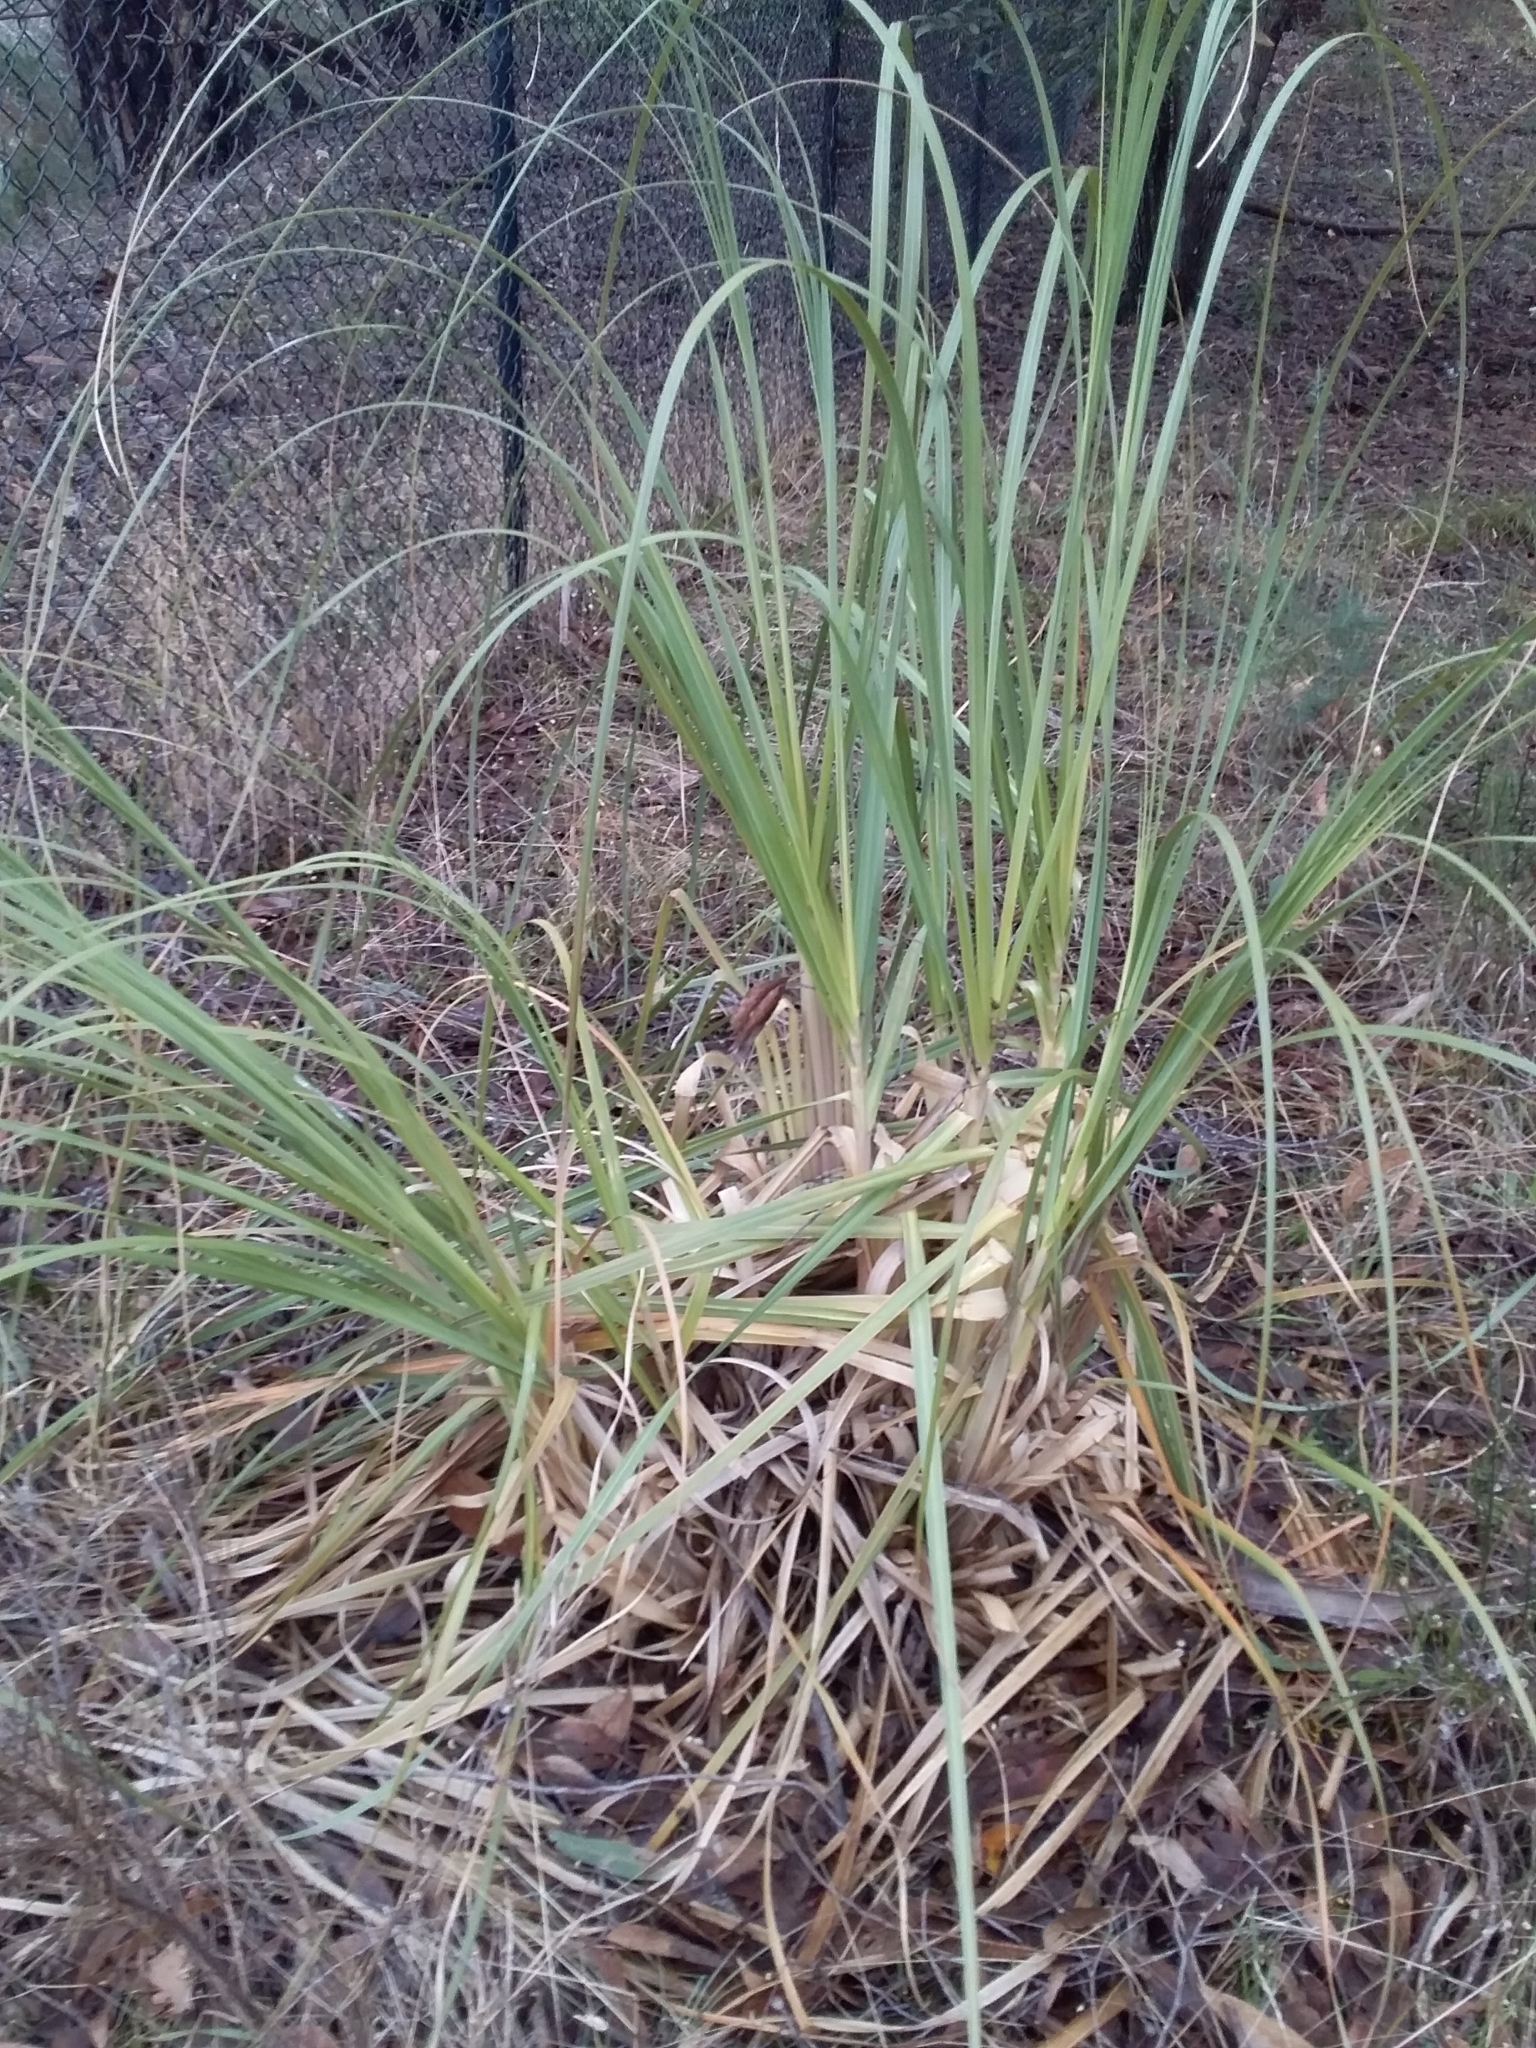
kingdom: Plantae
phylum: Tracheophyta
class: Liliopsida
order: Poales
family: Poaceae
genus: Cortaderia
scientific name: Cortaderia selloana
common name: Uruguayan pampas grass
